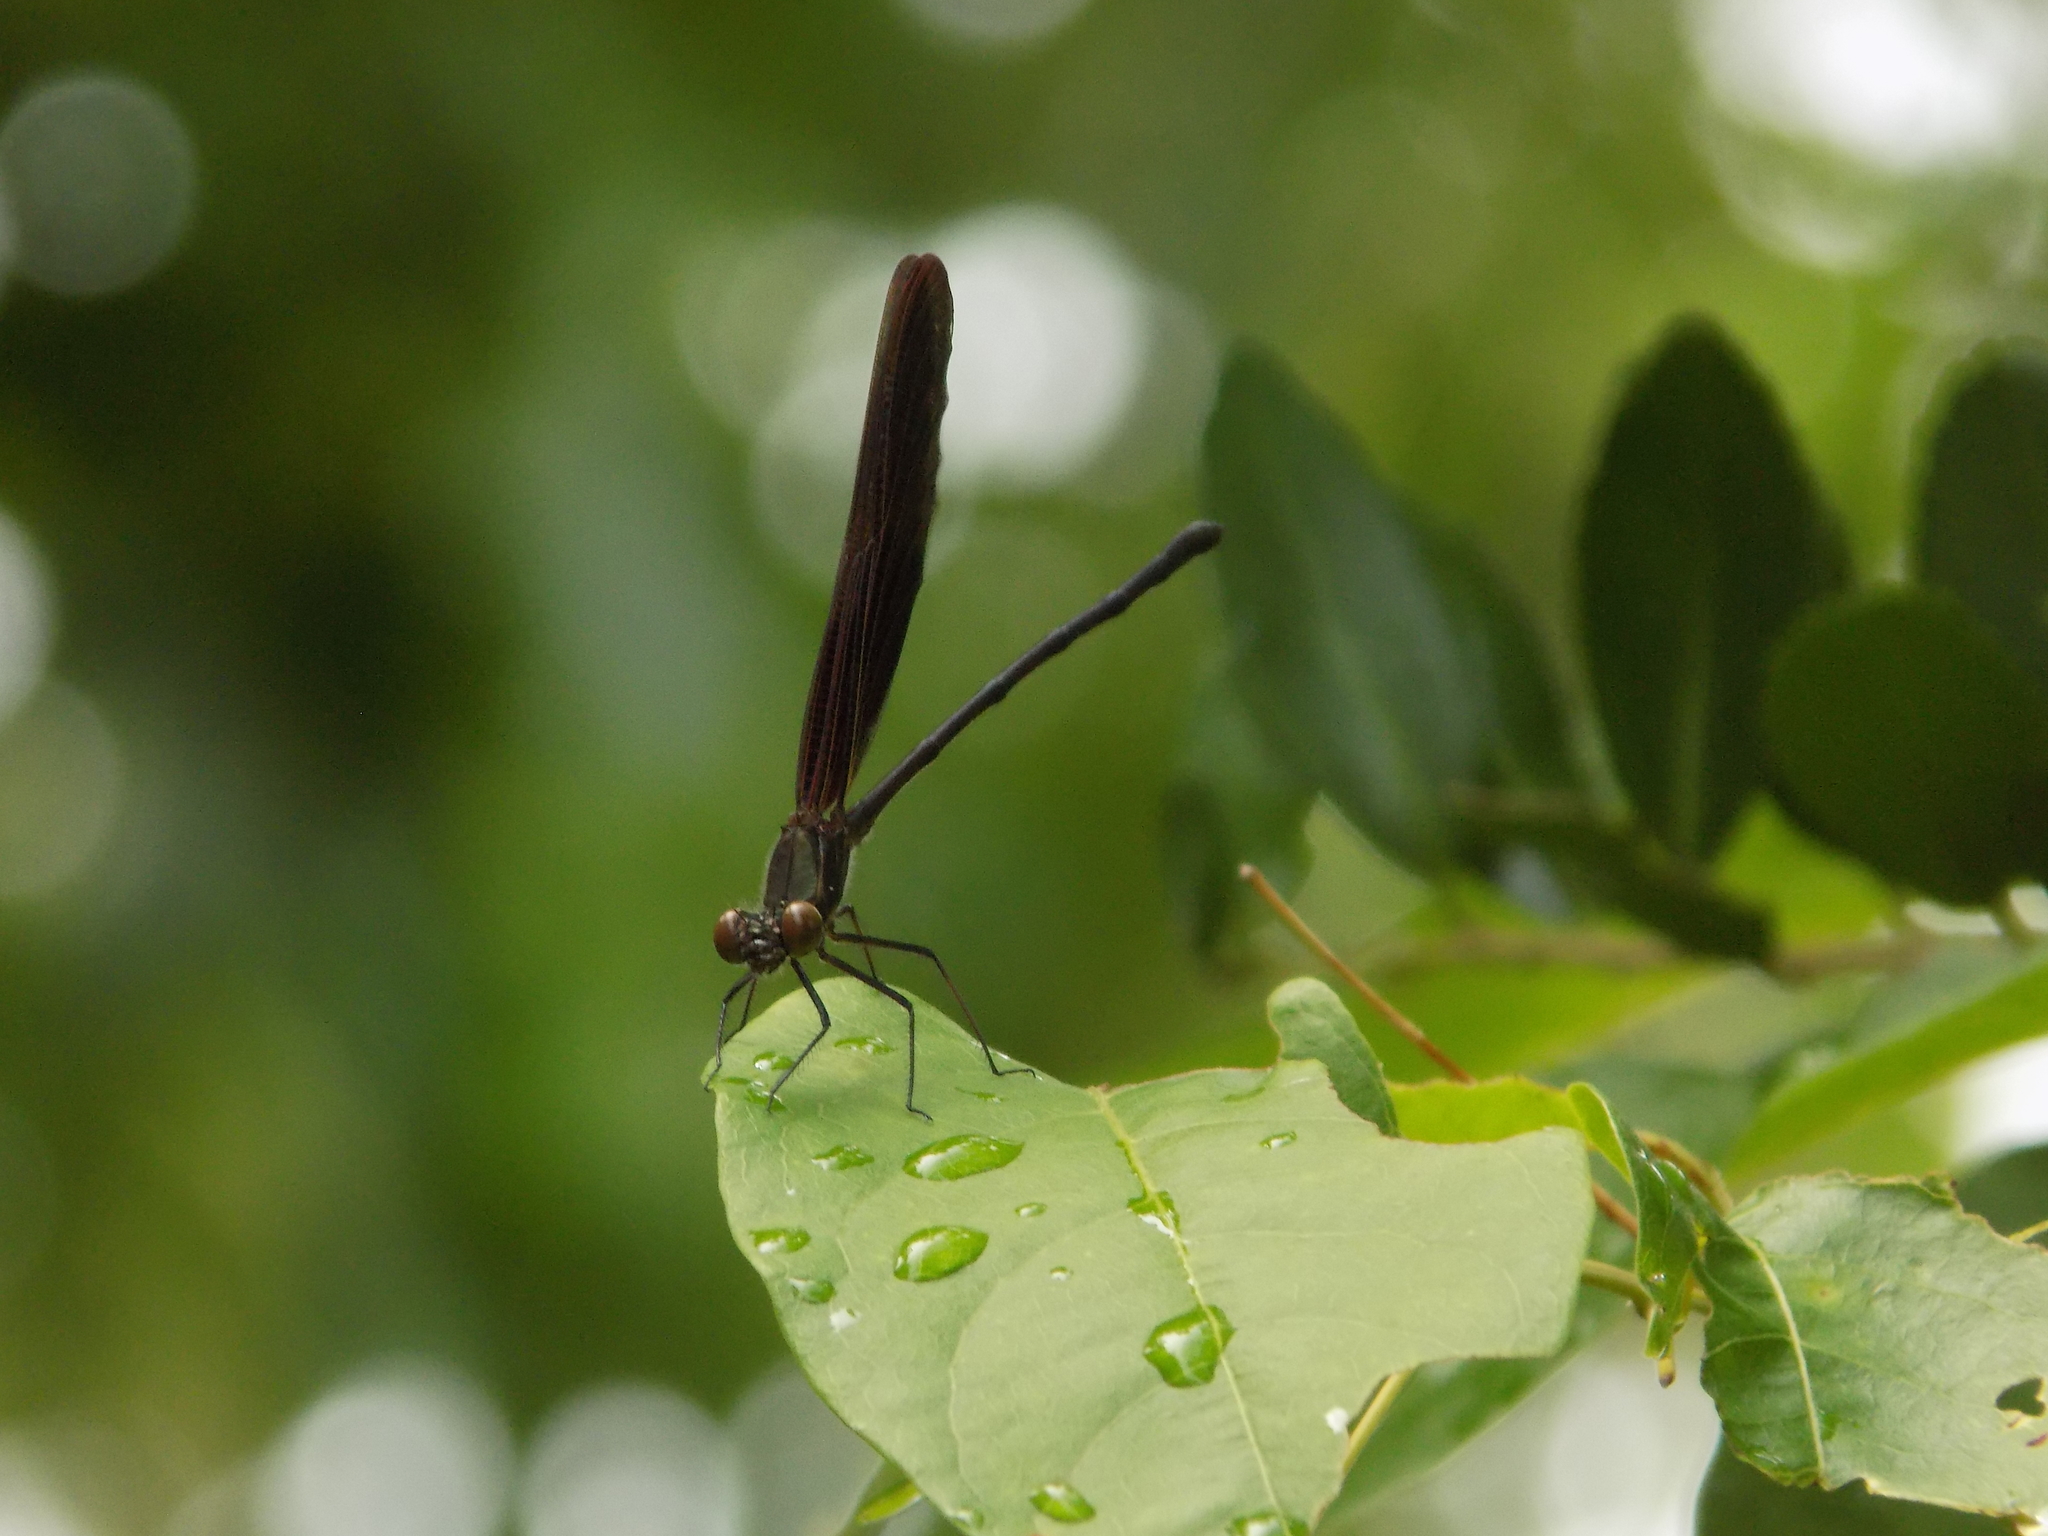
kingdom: Animalia
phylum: Arthropoda
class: Insecta
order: Odonata
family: Calopterygidae
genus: Hetaerina
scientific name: Hetaerina titia
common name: Smoky rubyspot
